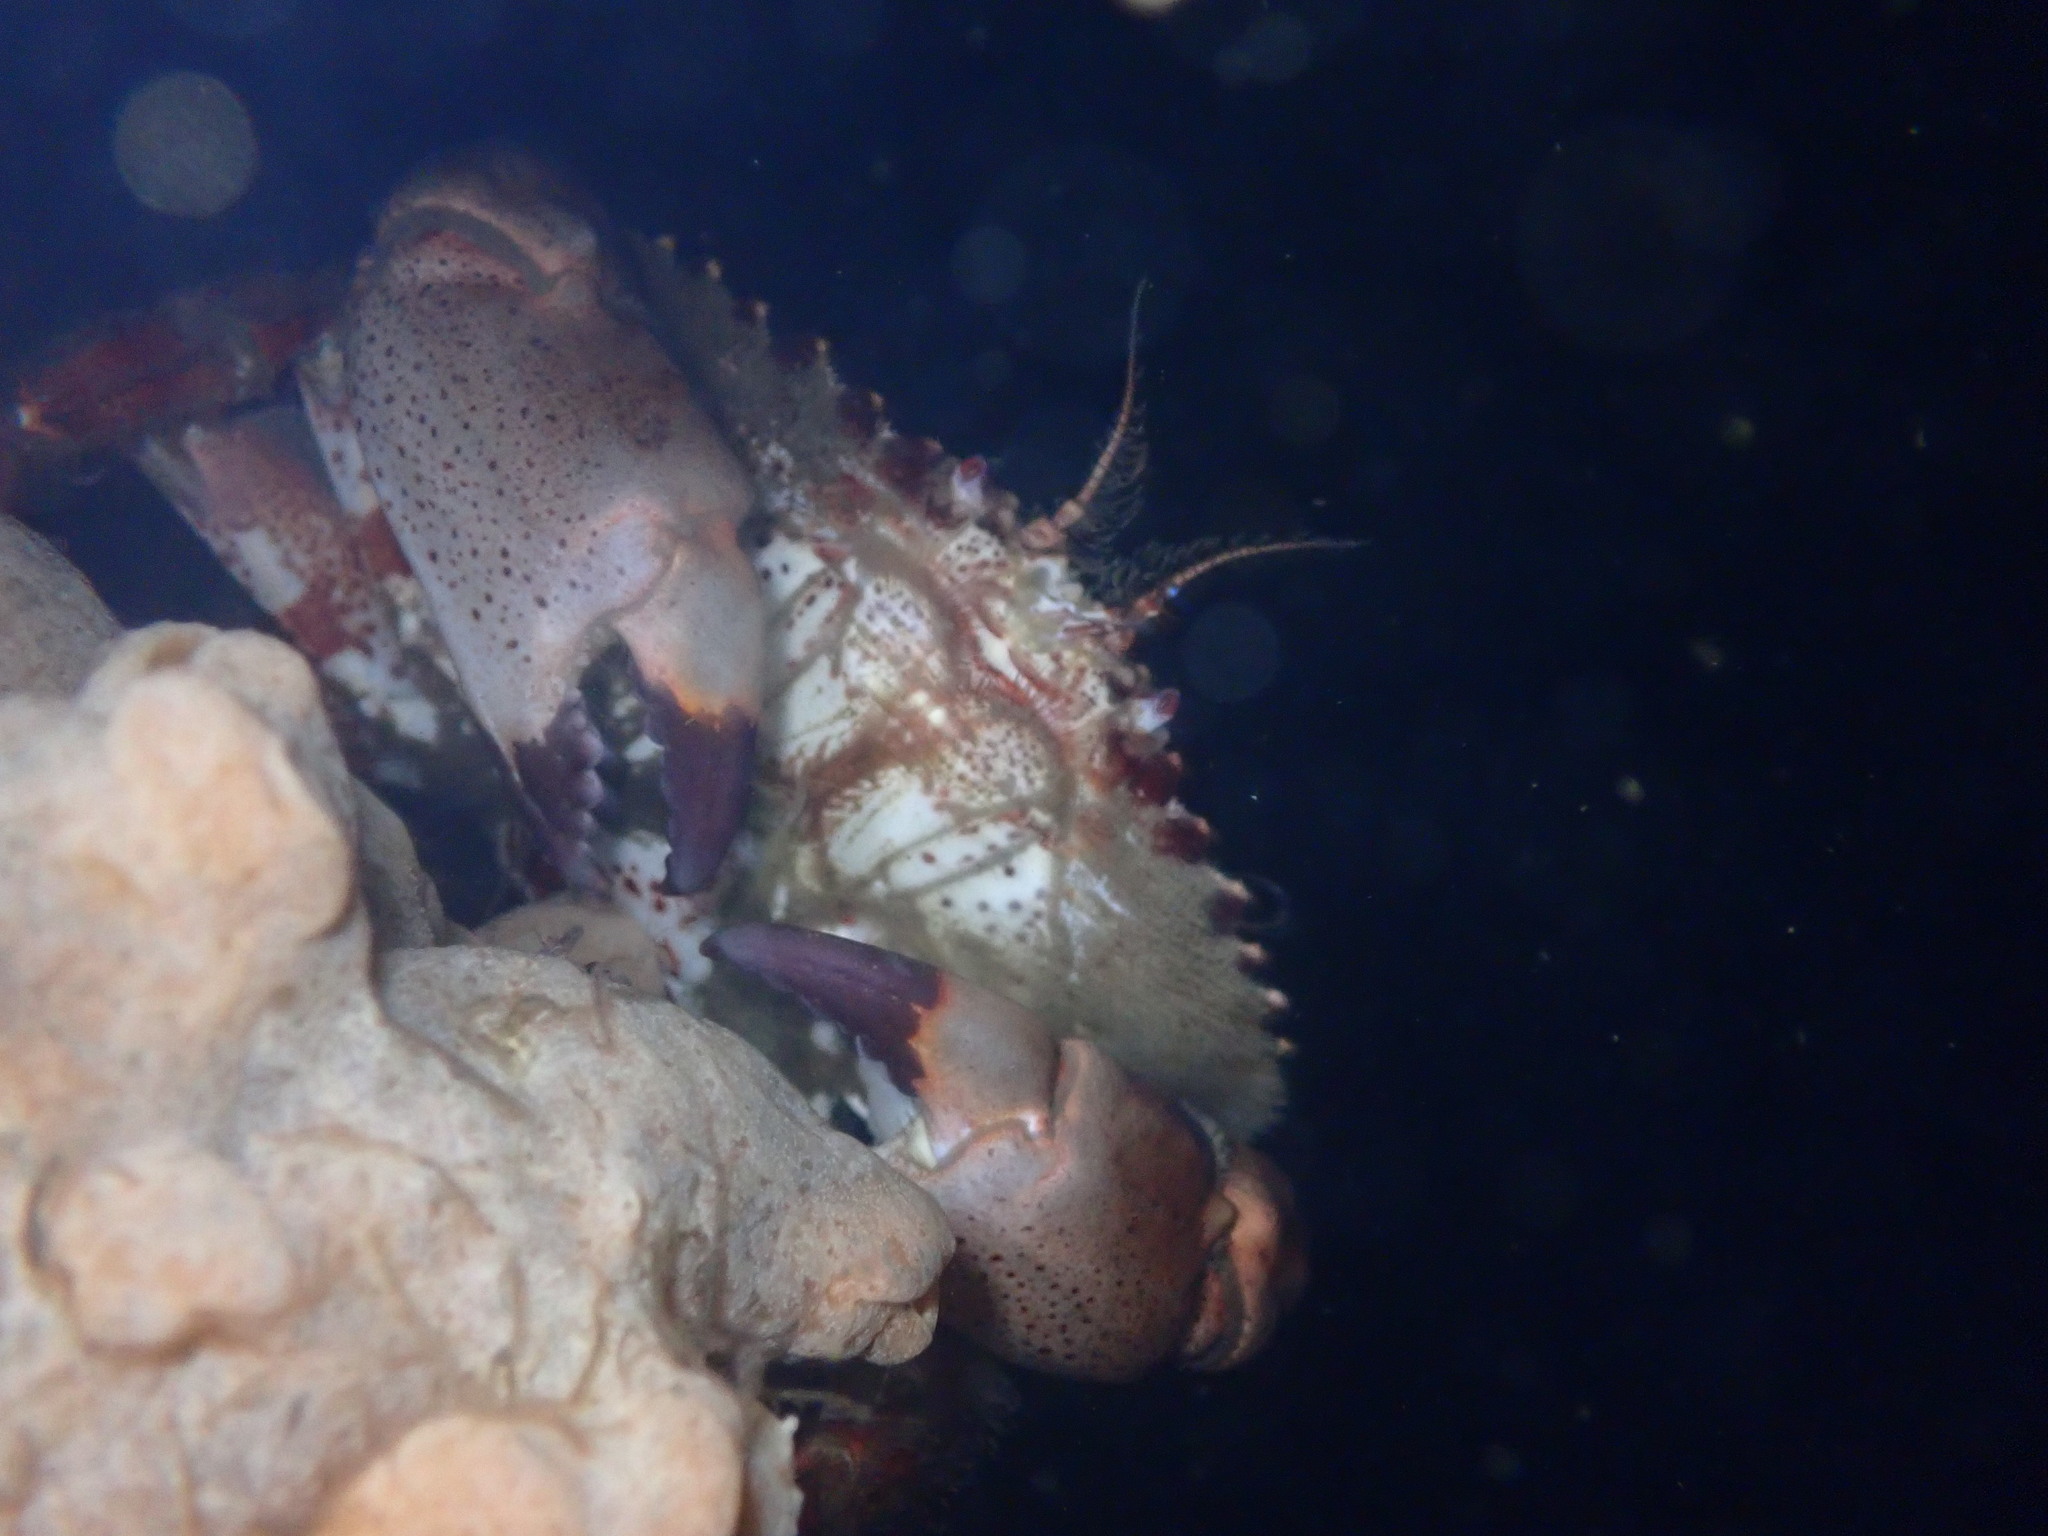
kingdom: Animalia
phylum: Arthropoda
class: Malacostraca
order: Decapoda
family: Cancridae
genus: Romaleon
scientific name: Romaleon antennarium
